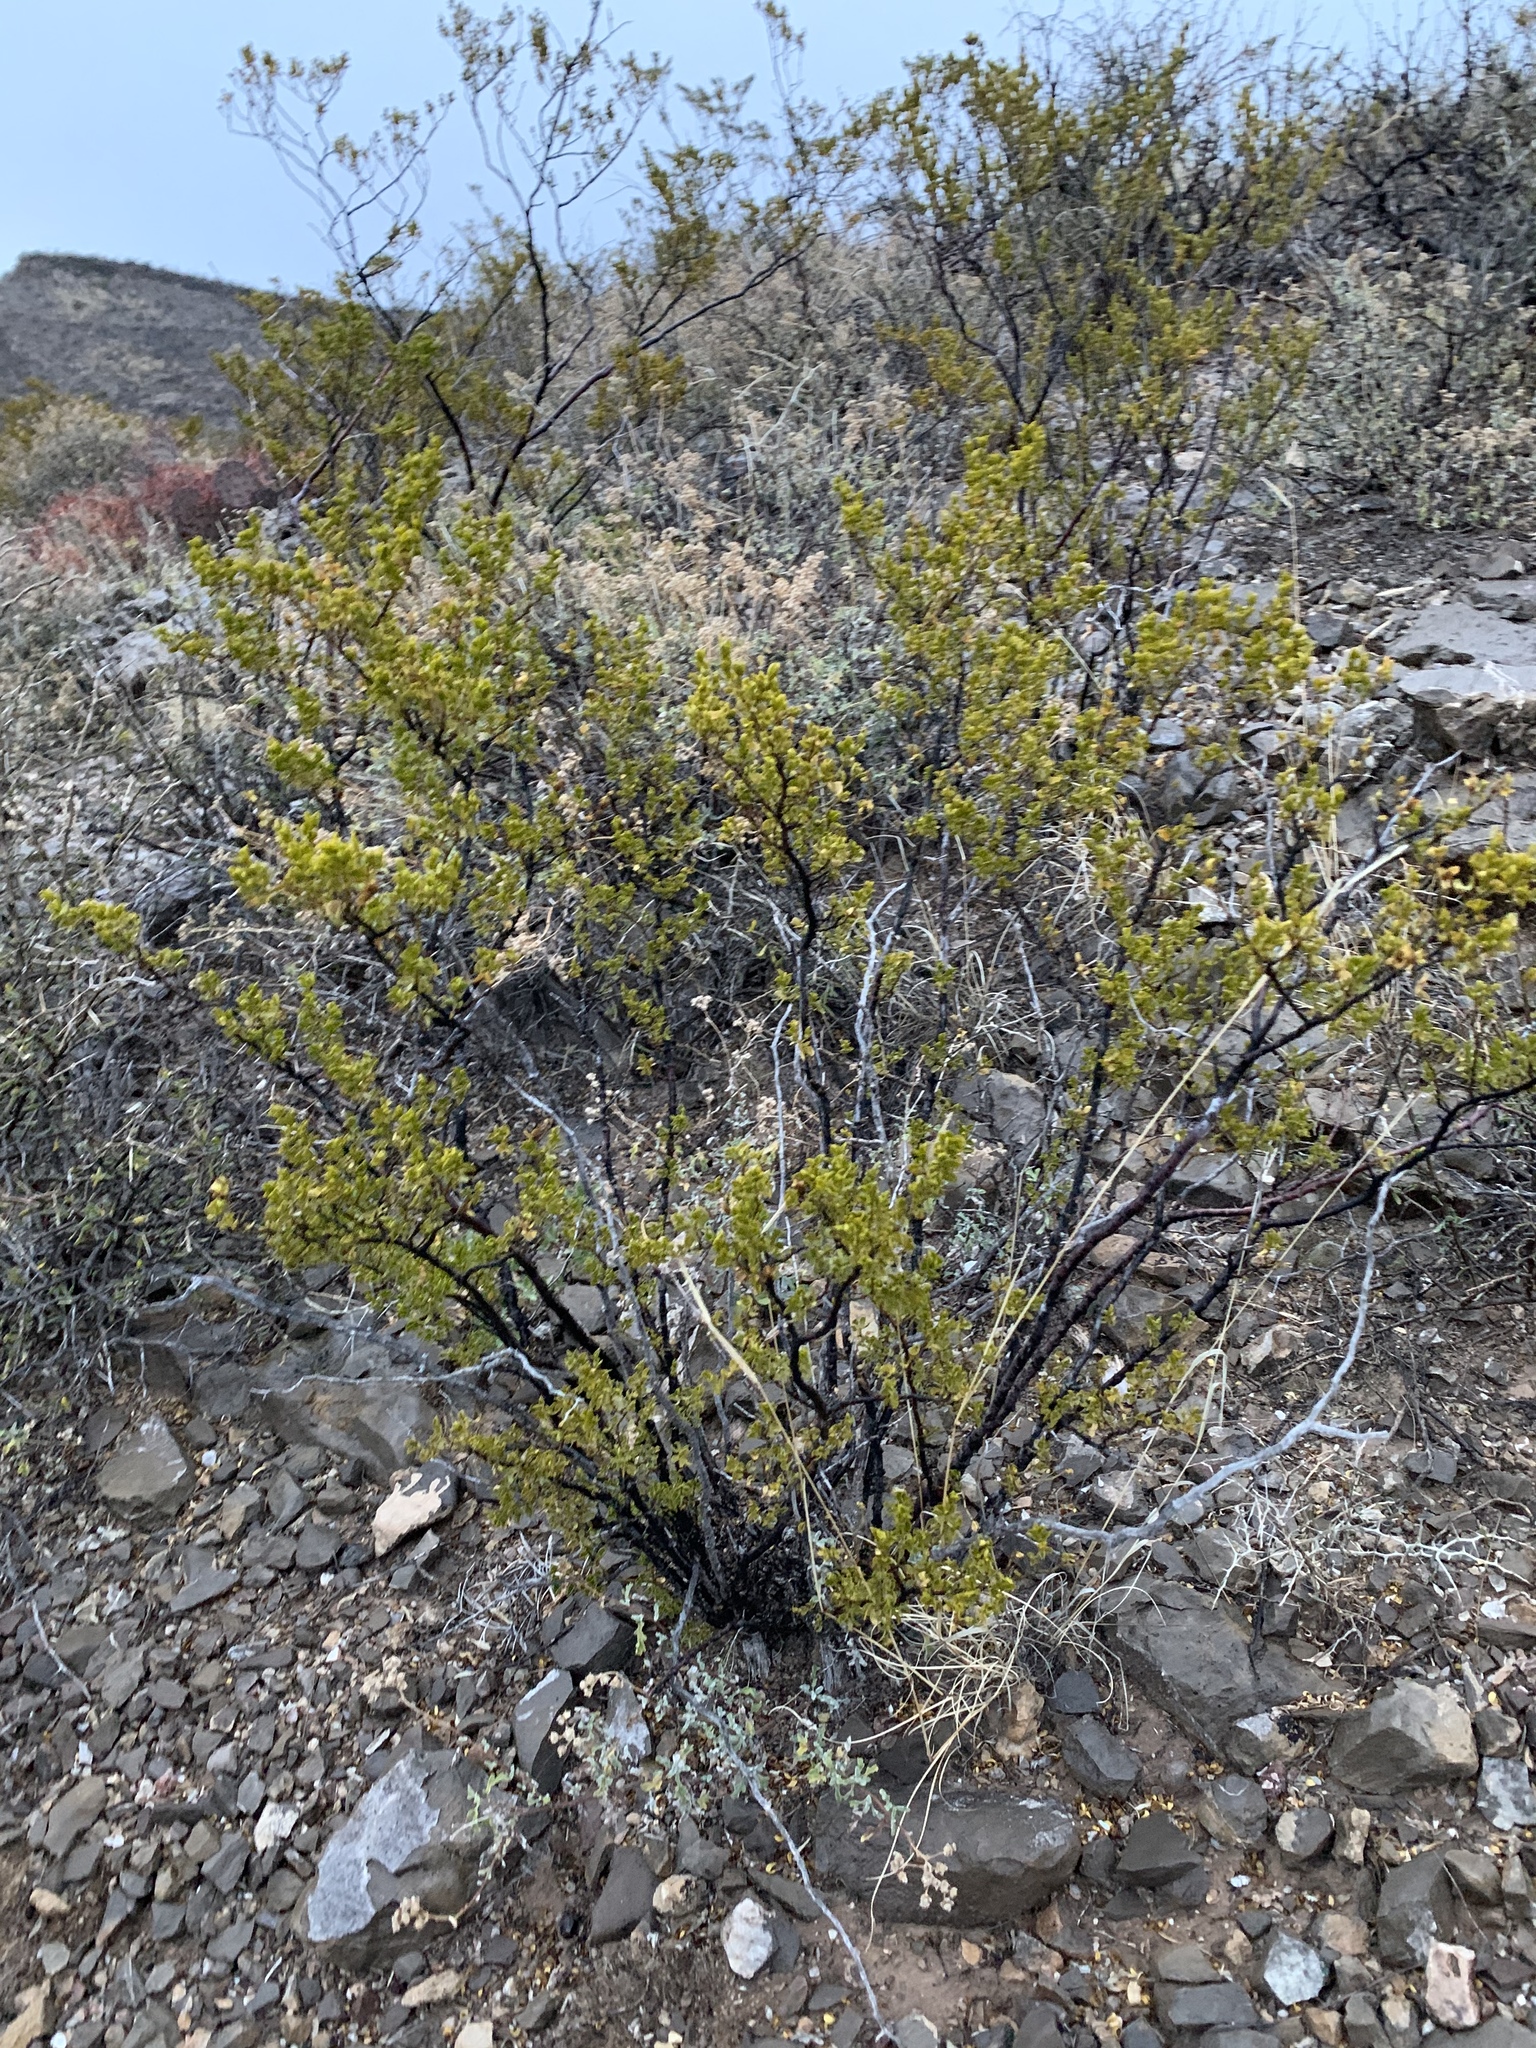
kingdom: Plantae
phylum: Tracheophyta
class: Magnoliopsida
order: Zygophyllales
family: Zygophyllaceae
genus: Larrea
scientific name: Larrea tridentata
